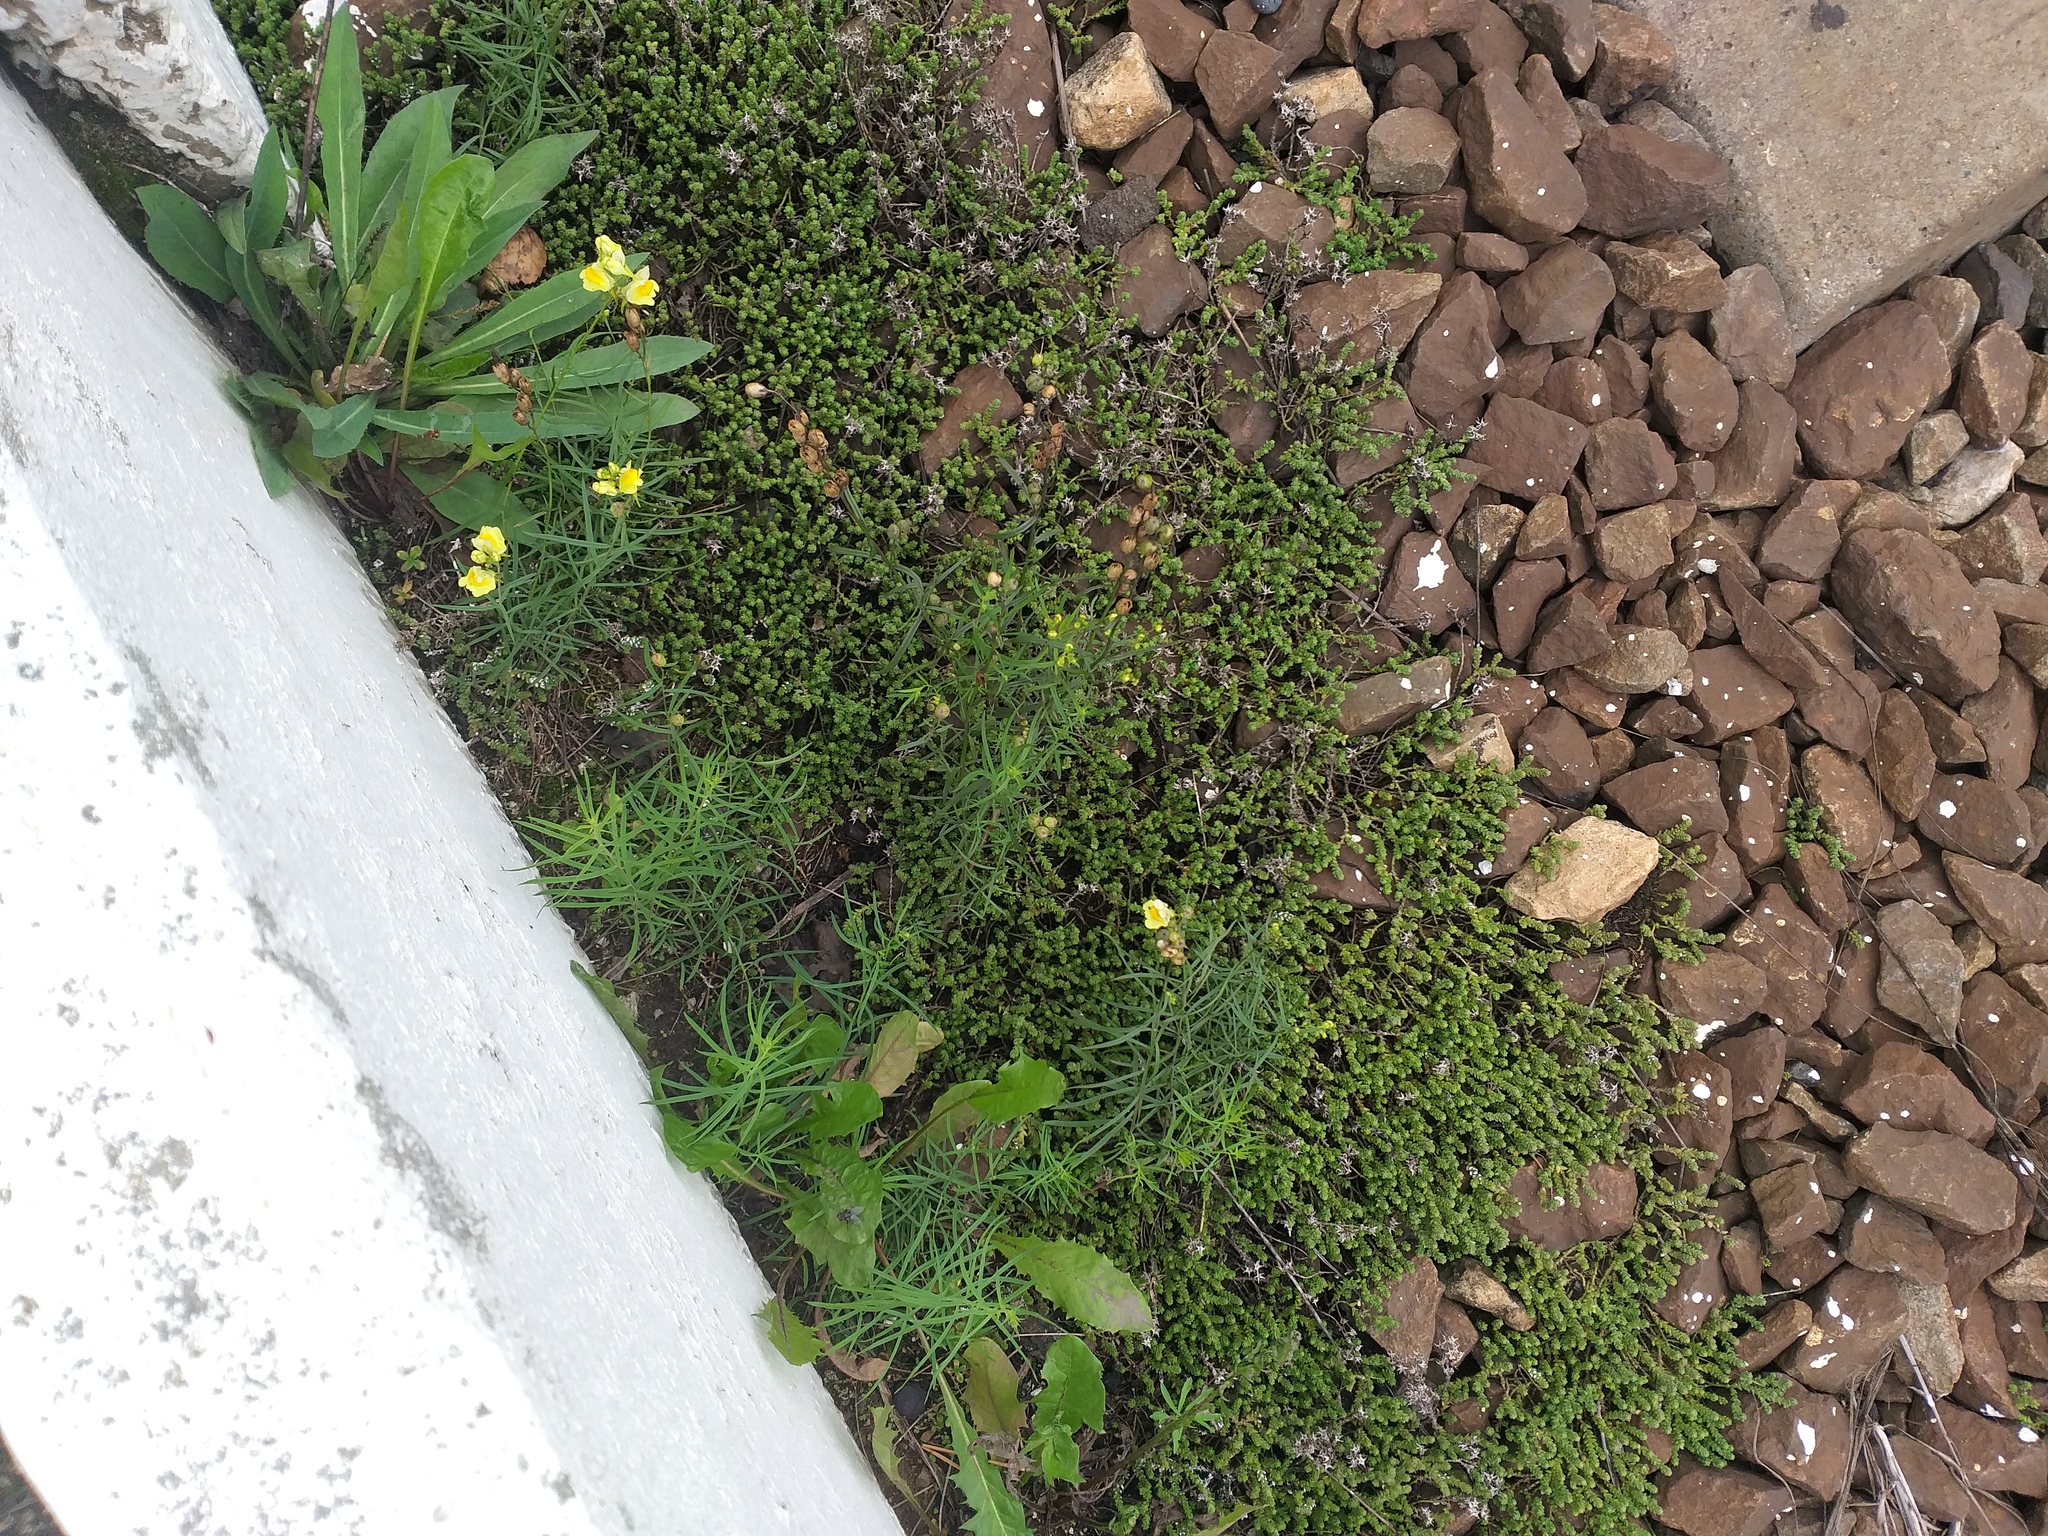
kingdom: Plantae
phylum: Tracheophyta
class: Magnoliopsida
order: Lamiales
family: Plantaginaceae
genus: Linaria
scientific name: Linaria vulgaris
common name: Butter and eggs
